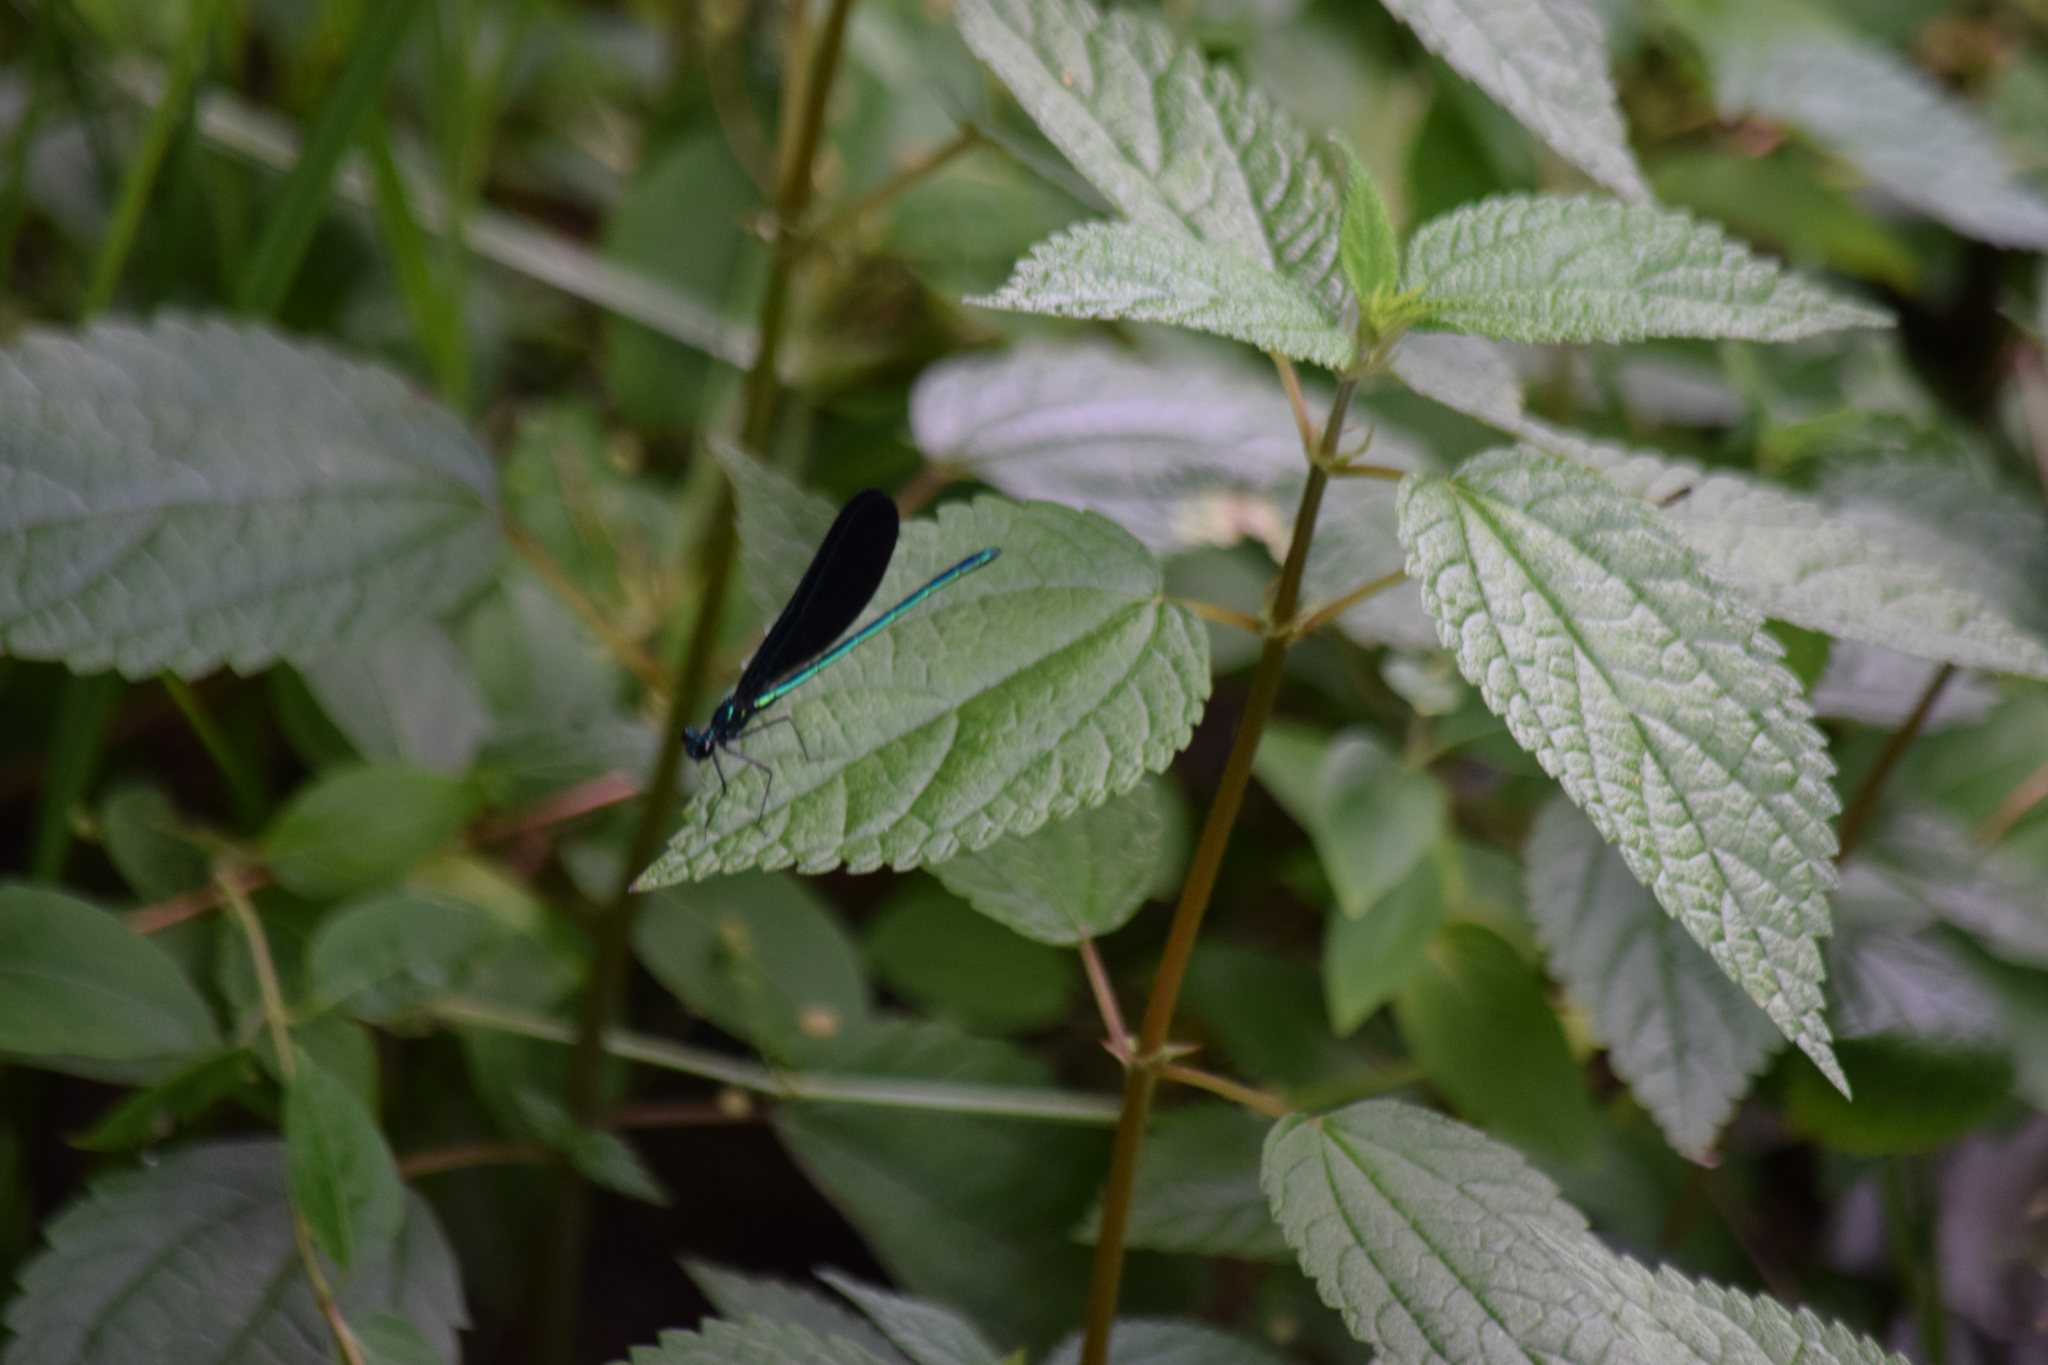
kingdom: Animalia
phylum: Arthropoda
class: Insecta
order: Odonata
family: Calopterygidae
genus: Calopteryx
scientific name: Calopteryx maculata
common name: Ebony jewelwing
